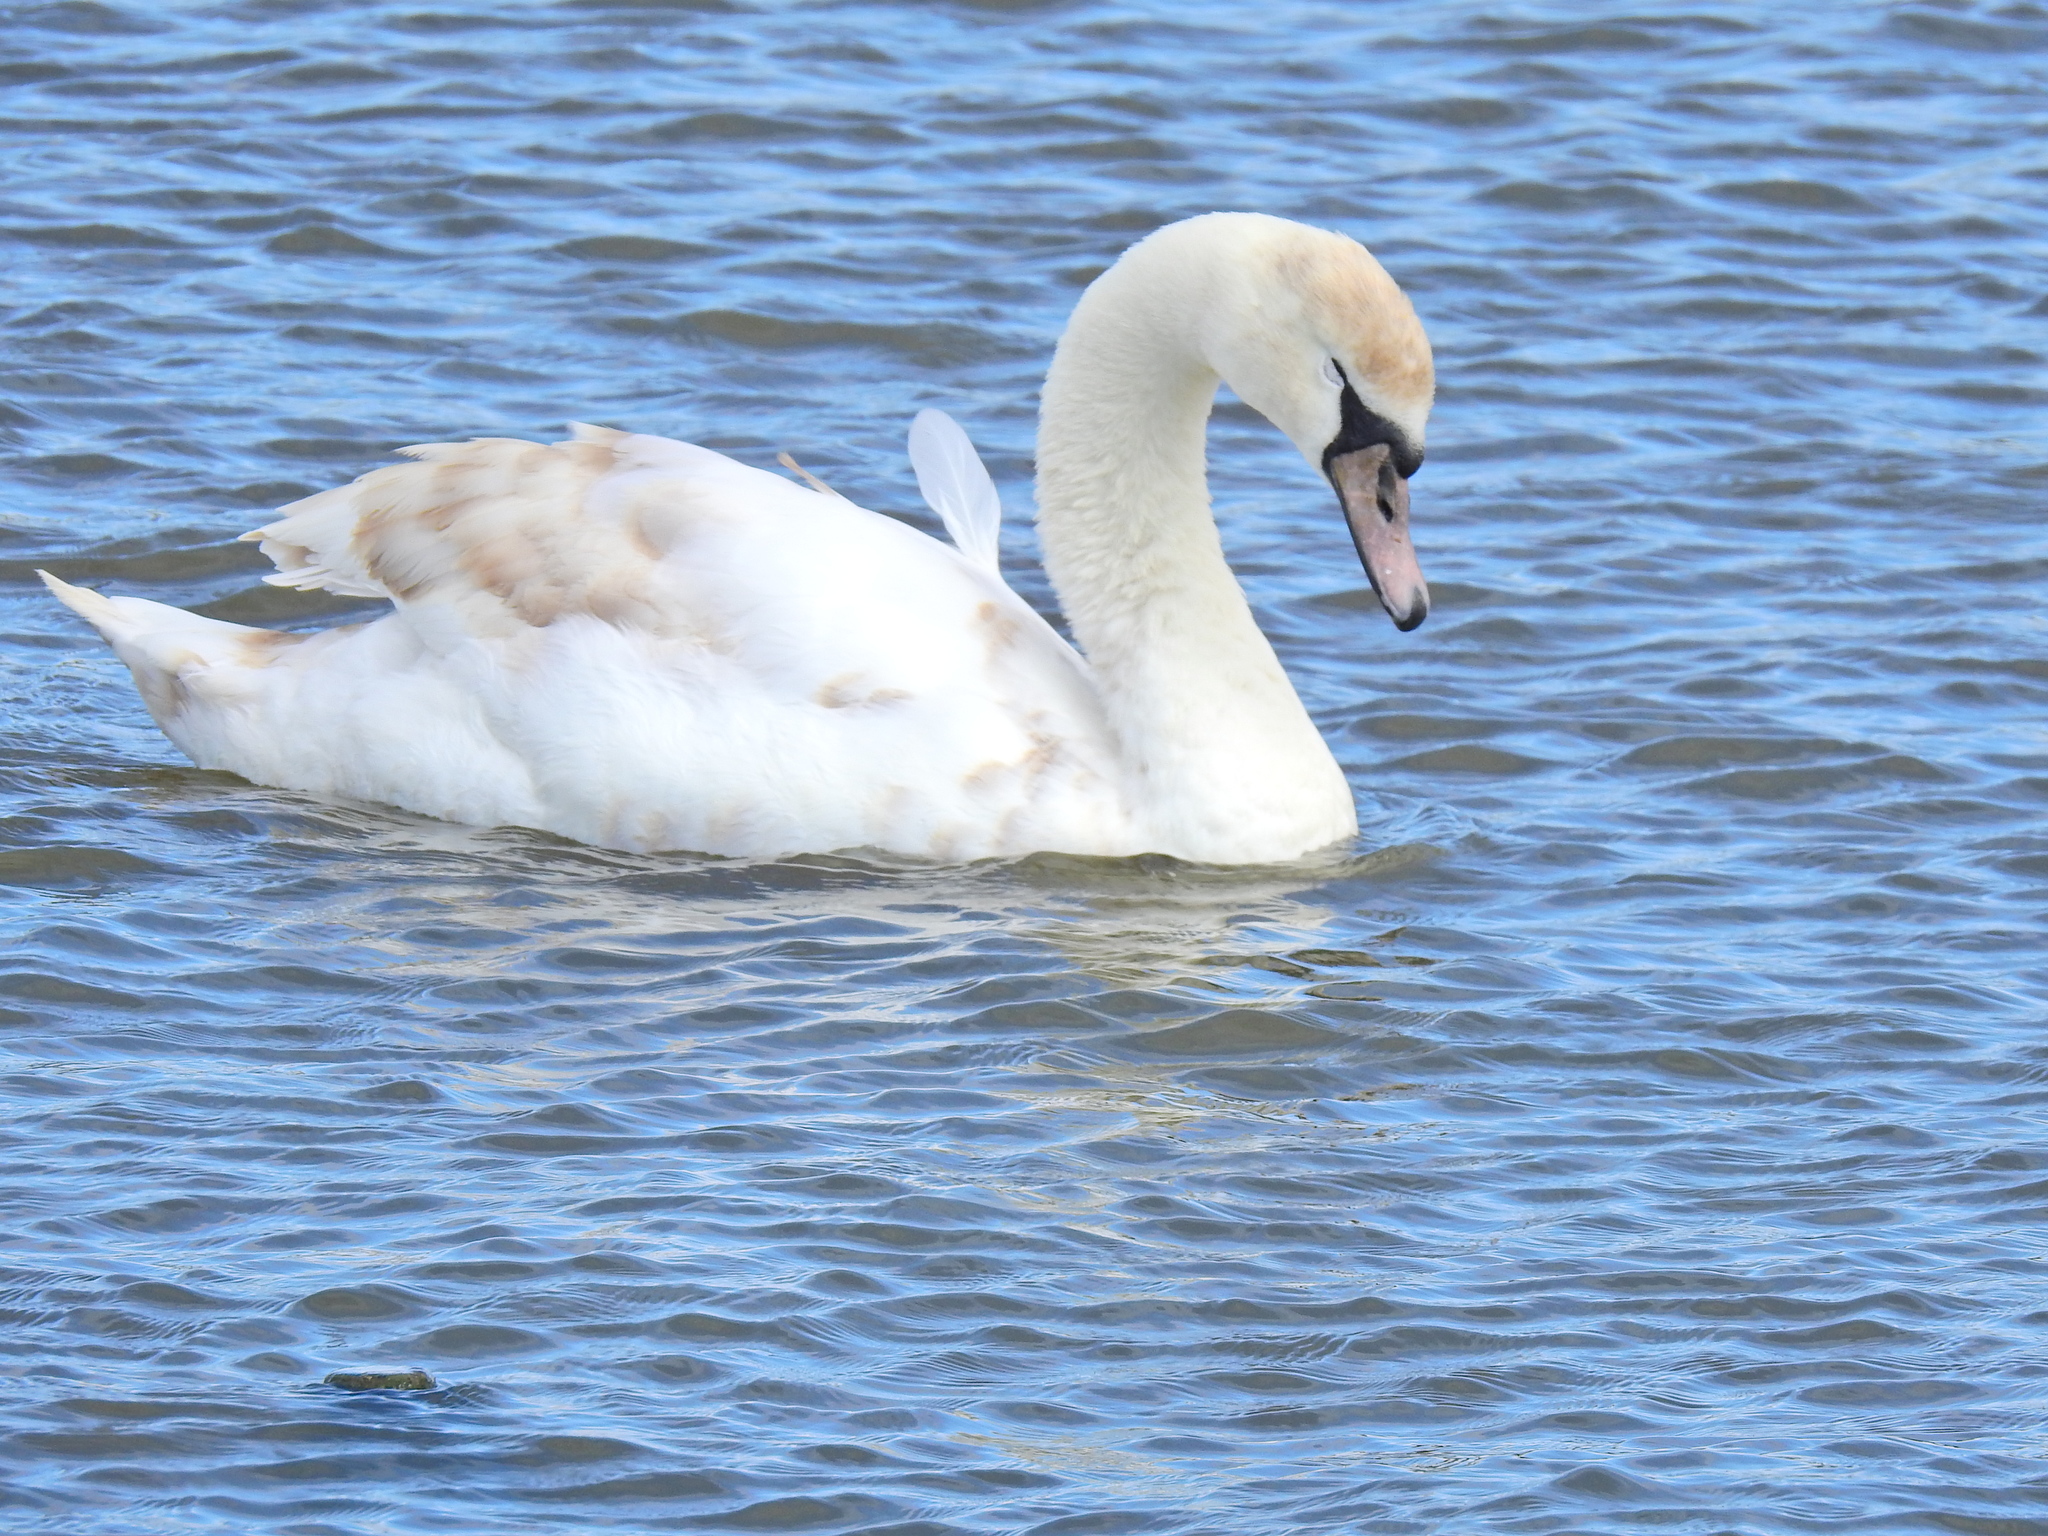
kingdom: Animalia
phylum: Chordata
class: Aves
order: Anseriformes
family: Anatidae
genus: Cygnus
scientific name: Cygnus olor
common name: Mute swan
